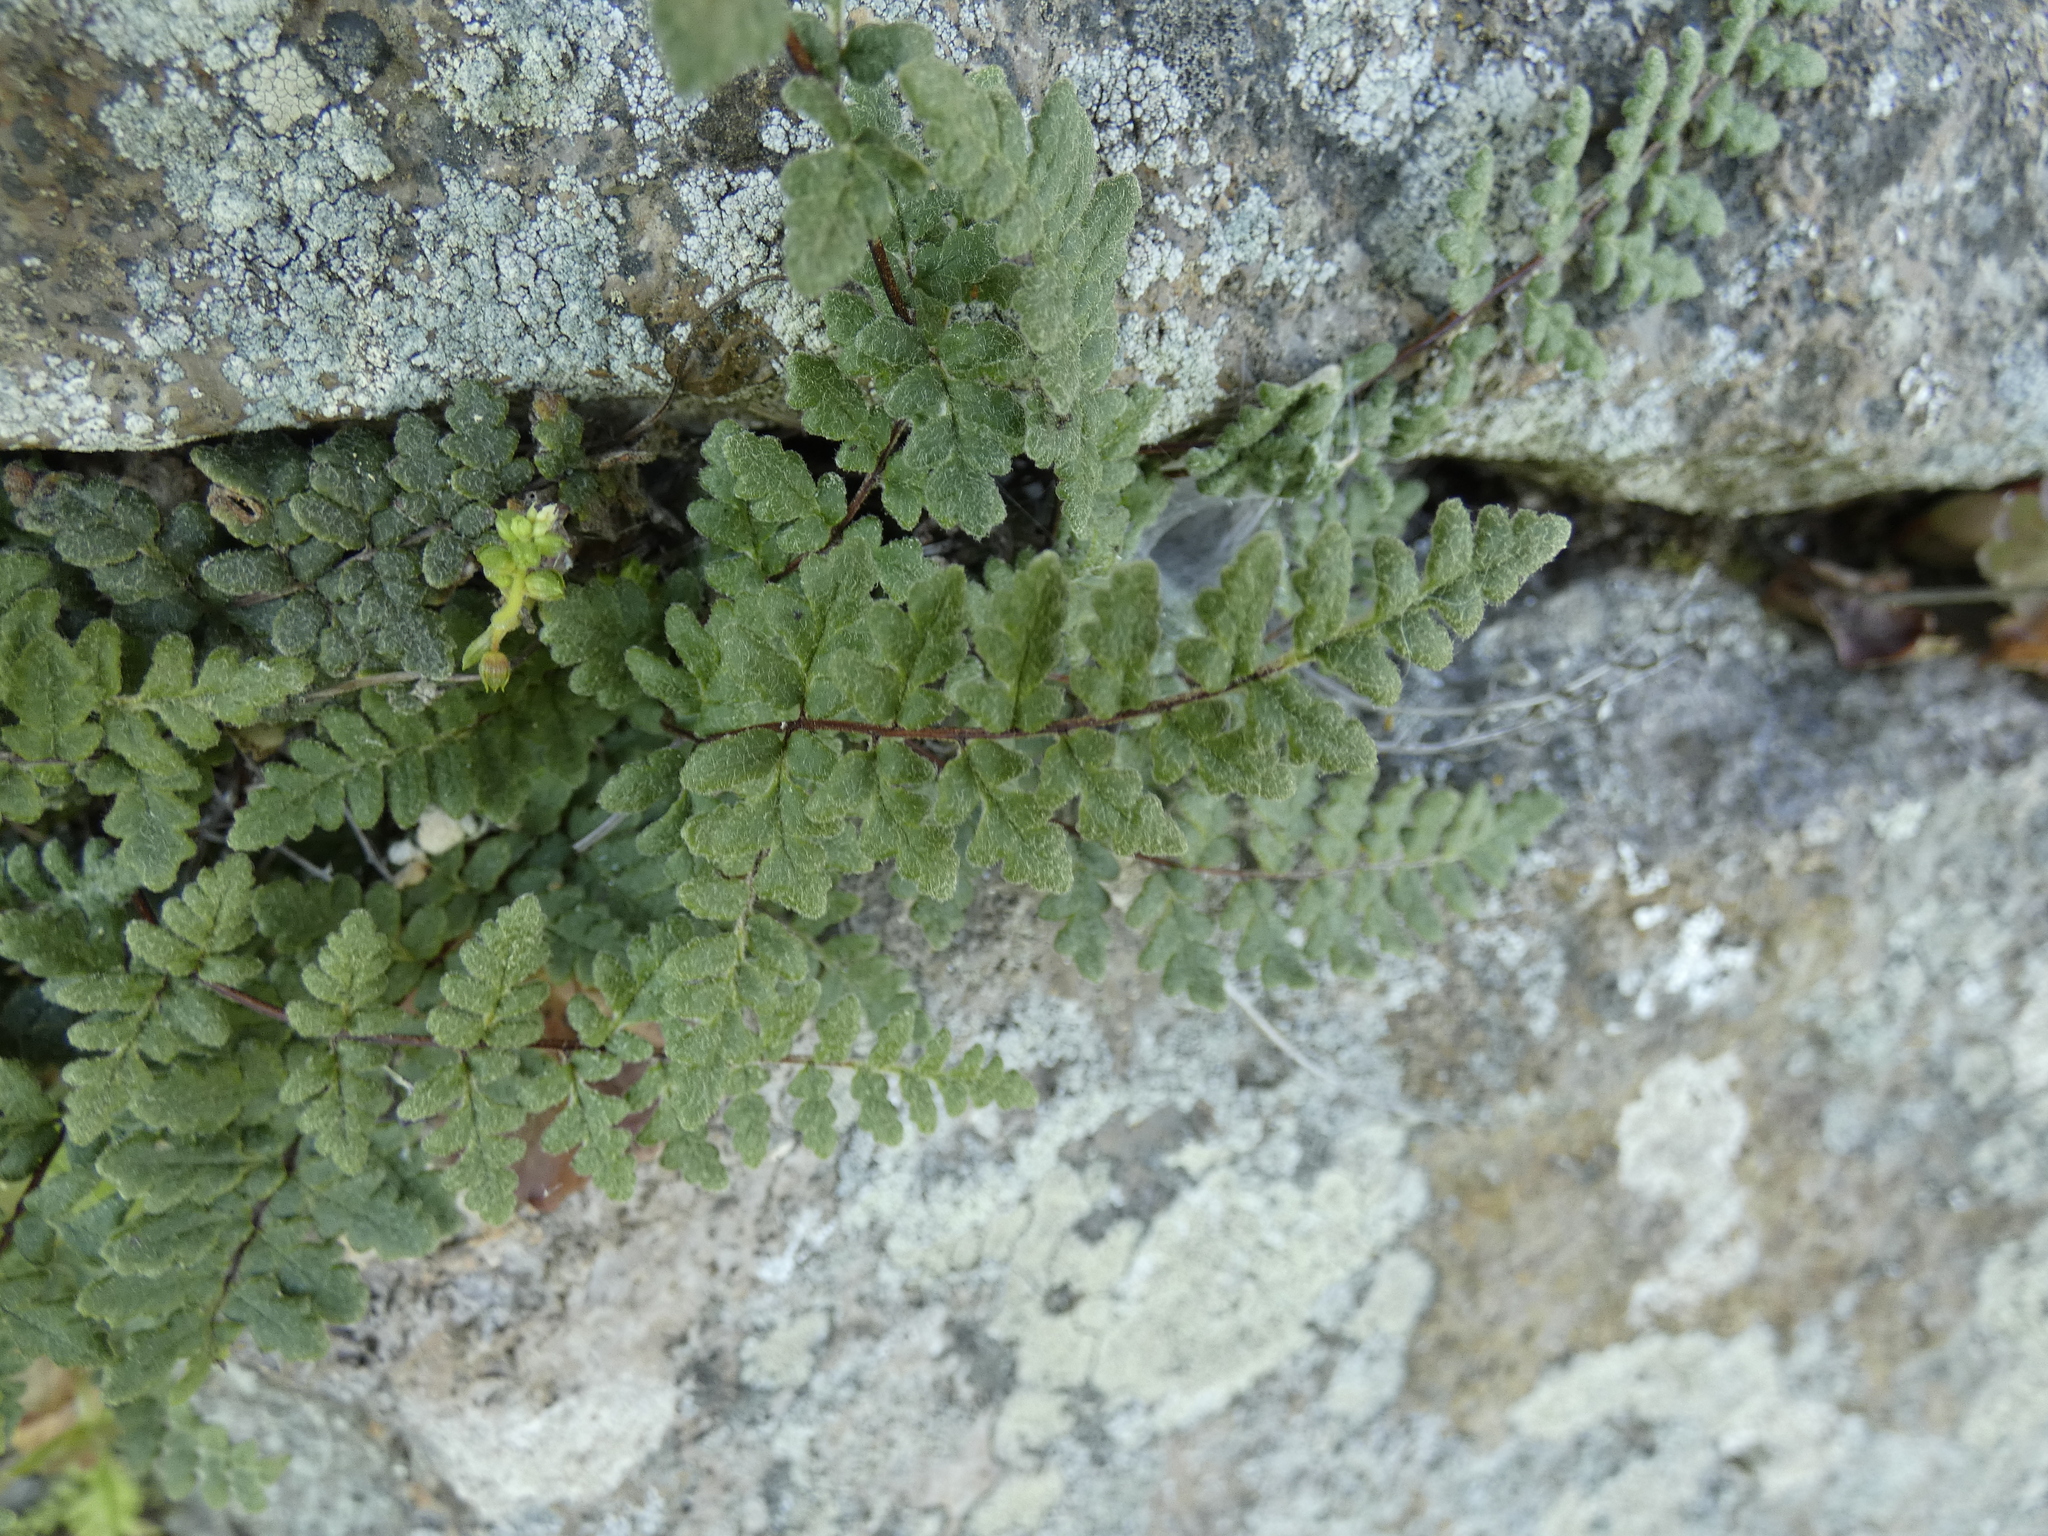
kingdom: Plantae
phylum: Tracheophyta
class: Polypodiopsida
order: Polypodiales
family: Pteridaceae
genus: Cheilanthes
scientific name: Cheilanthes hypoleuca
